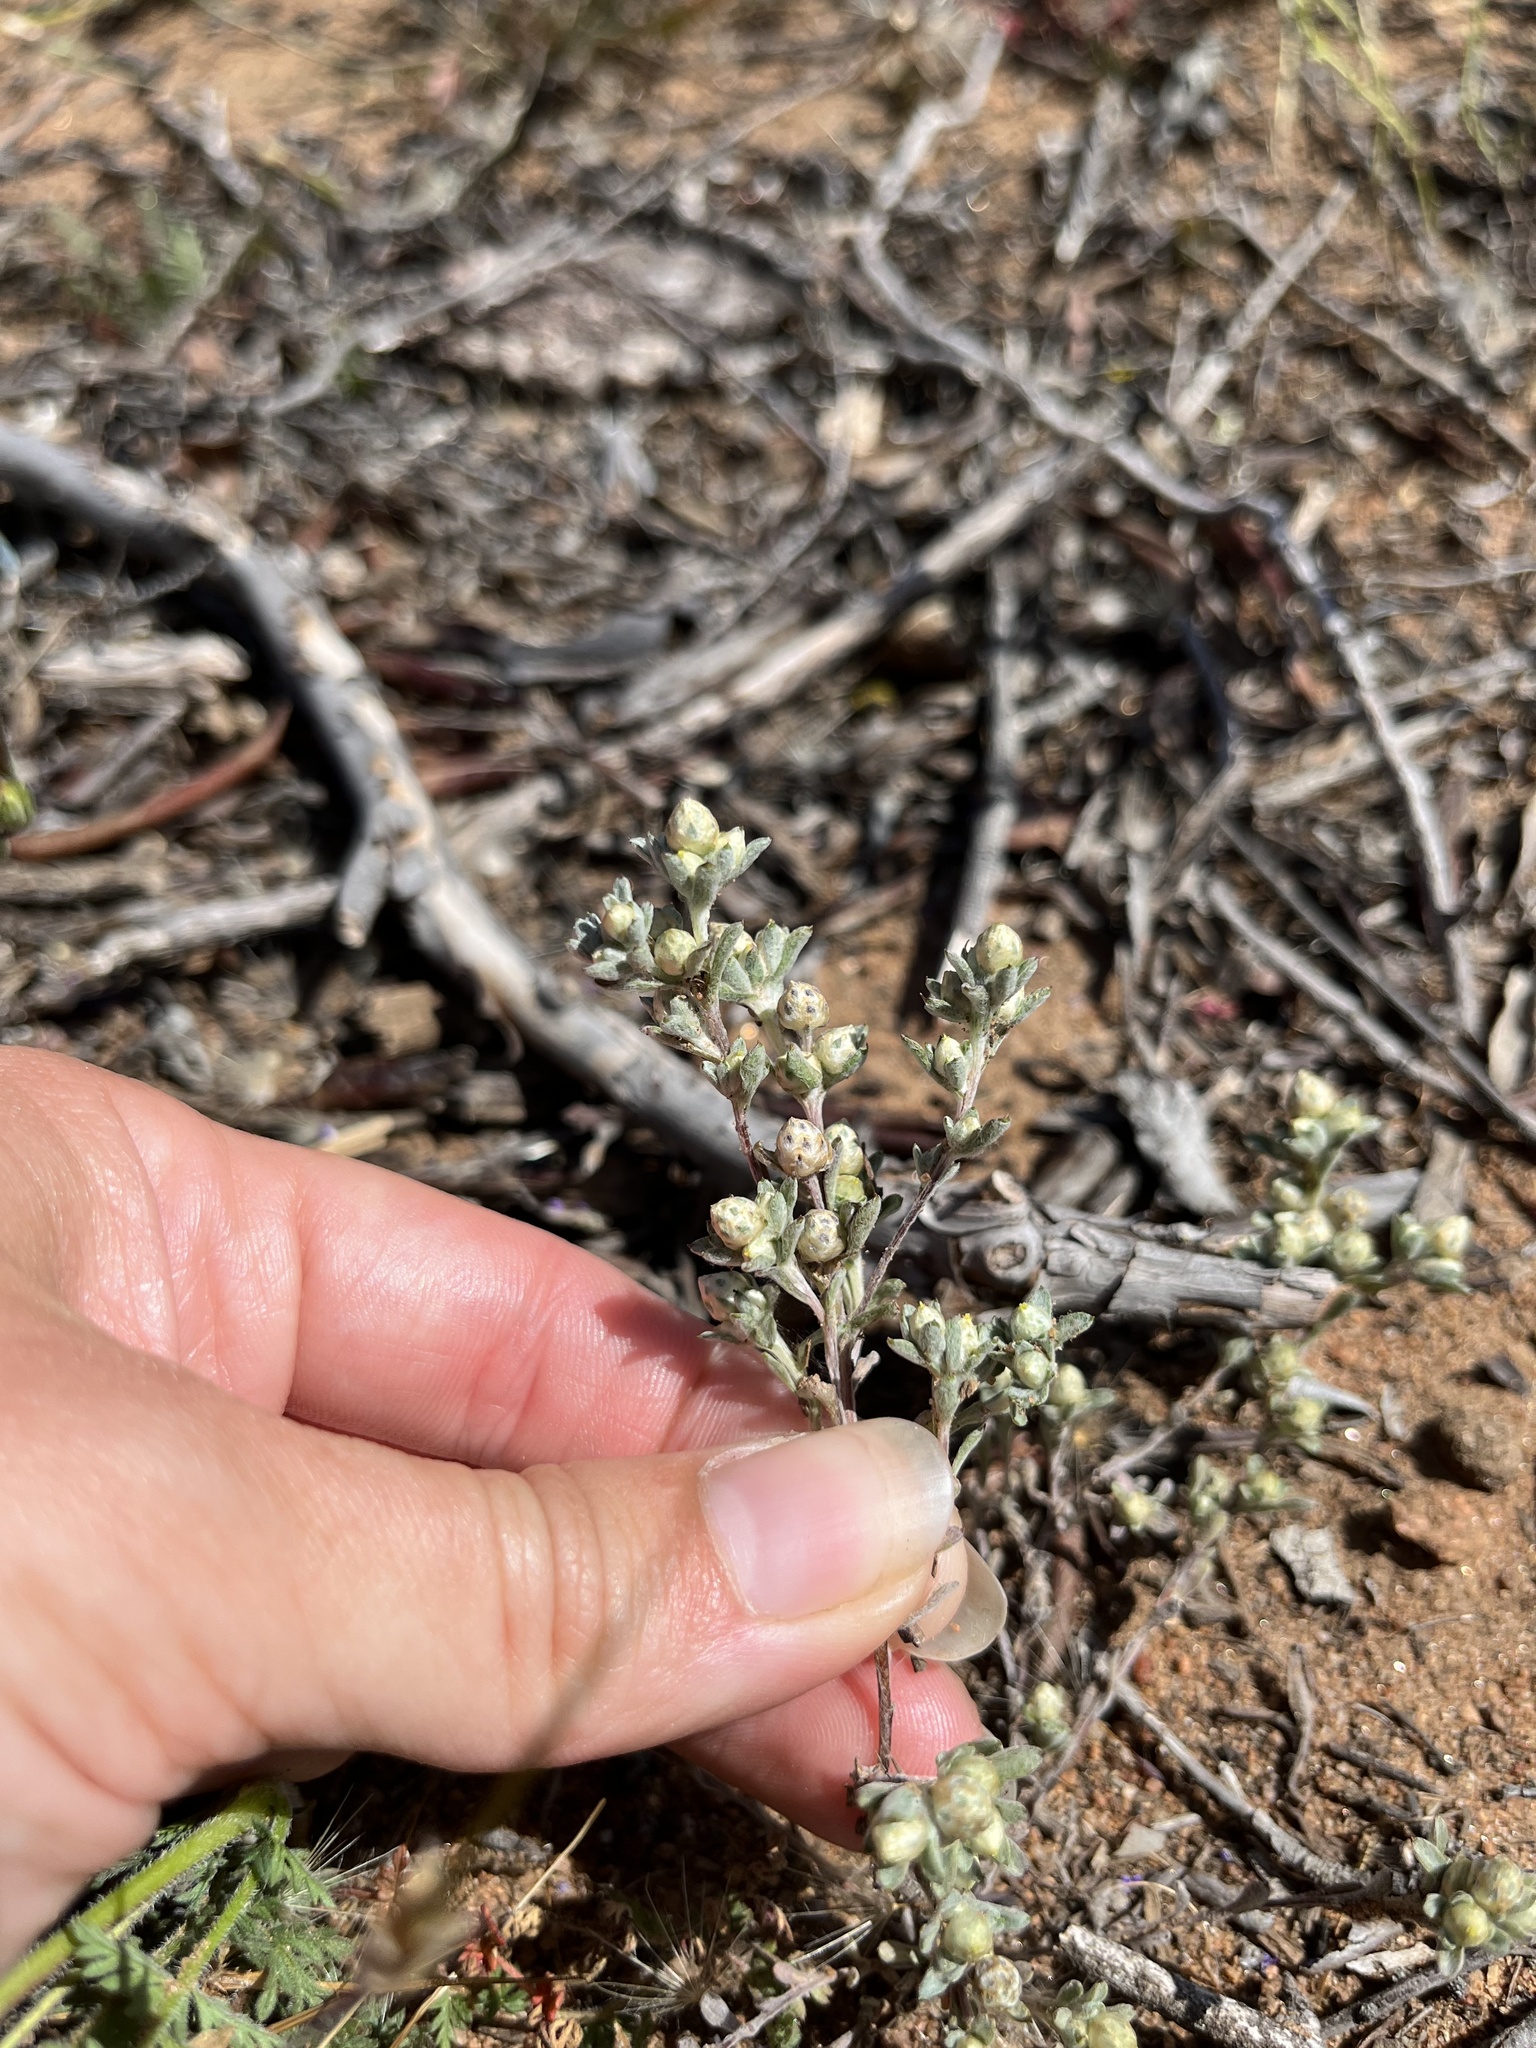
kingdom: Plantae
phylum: Tracheophyta
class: Magnoliopsida
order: Asterales
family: Asteraceae
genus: Stylocline
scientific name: Stylocline gnaphaloides
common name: Everlasting nest-straw
